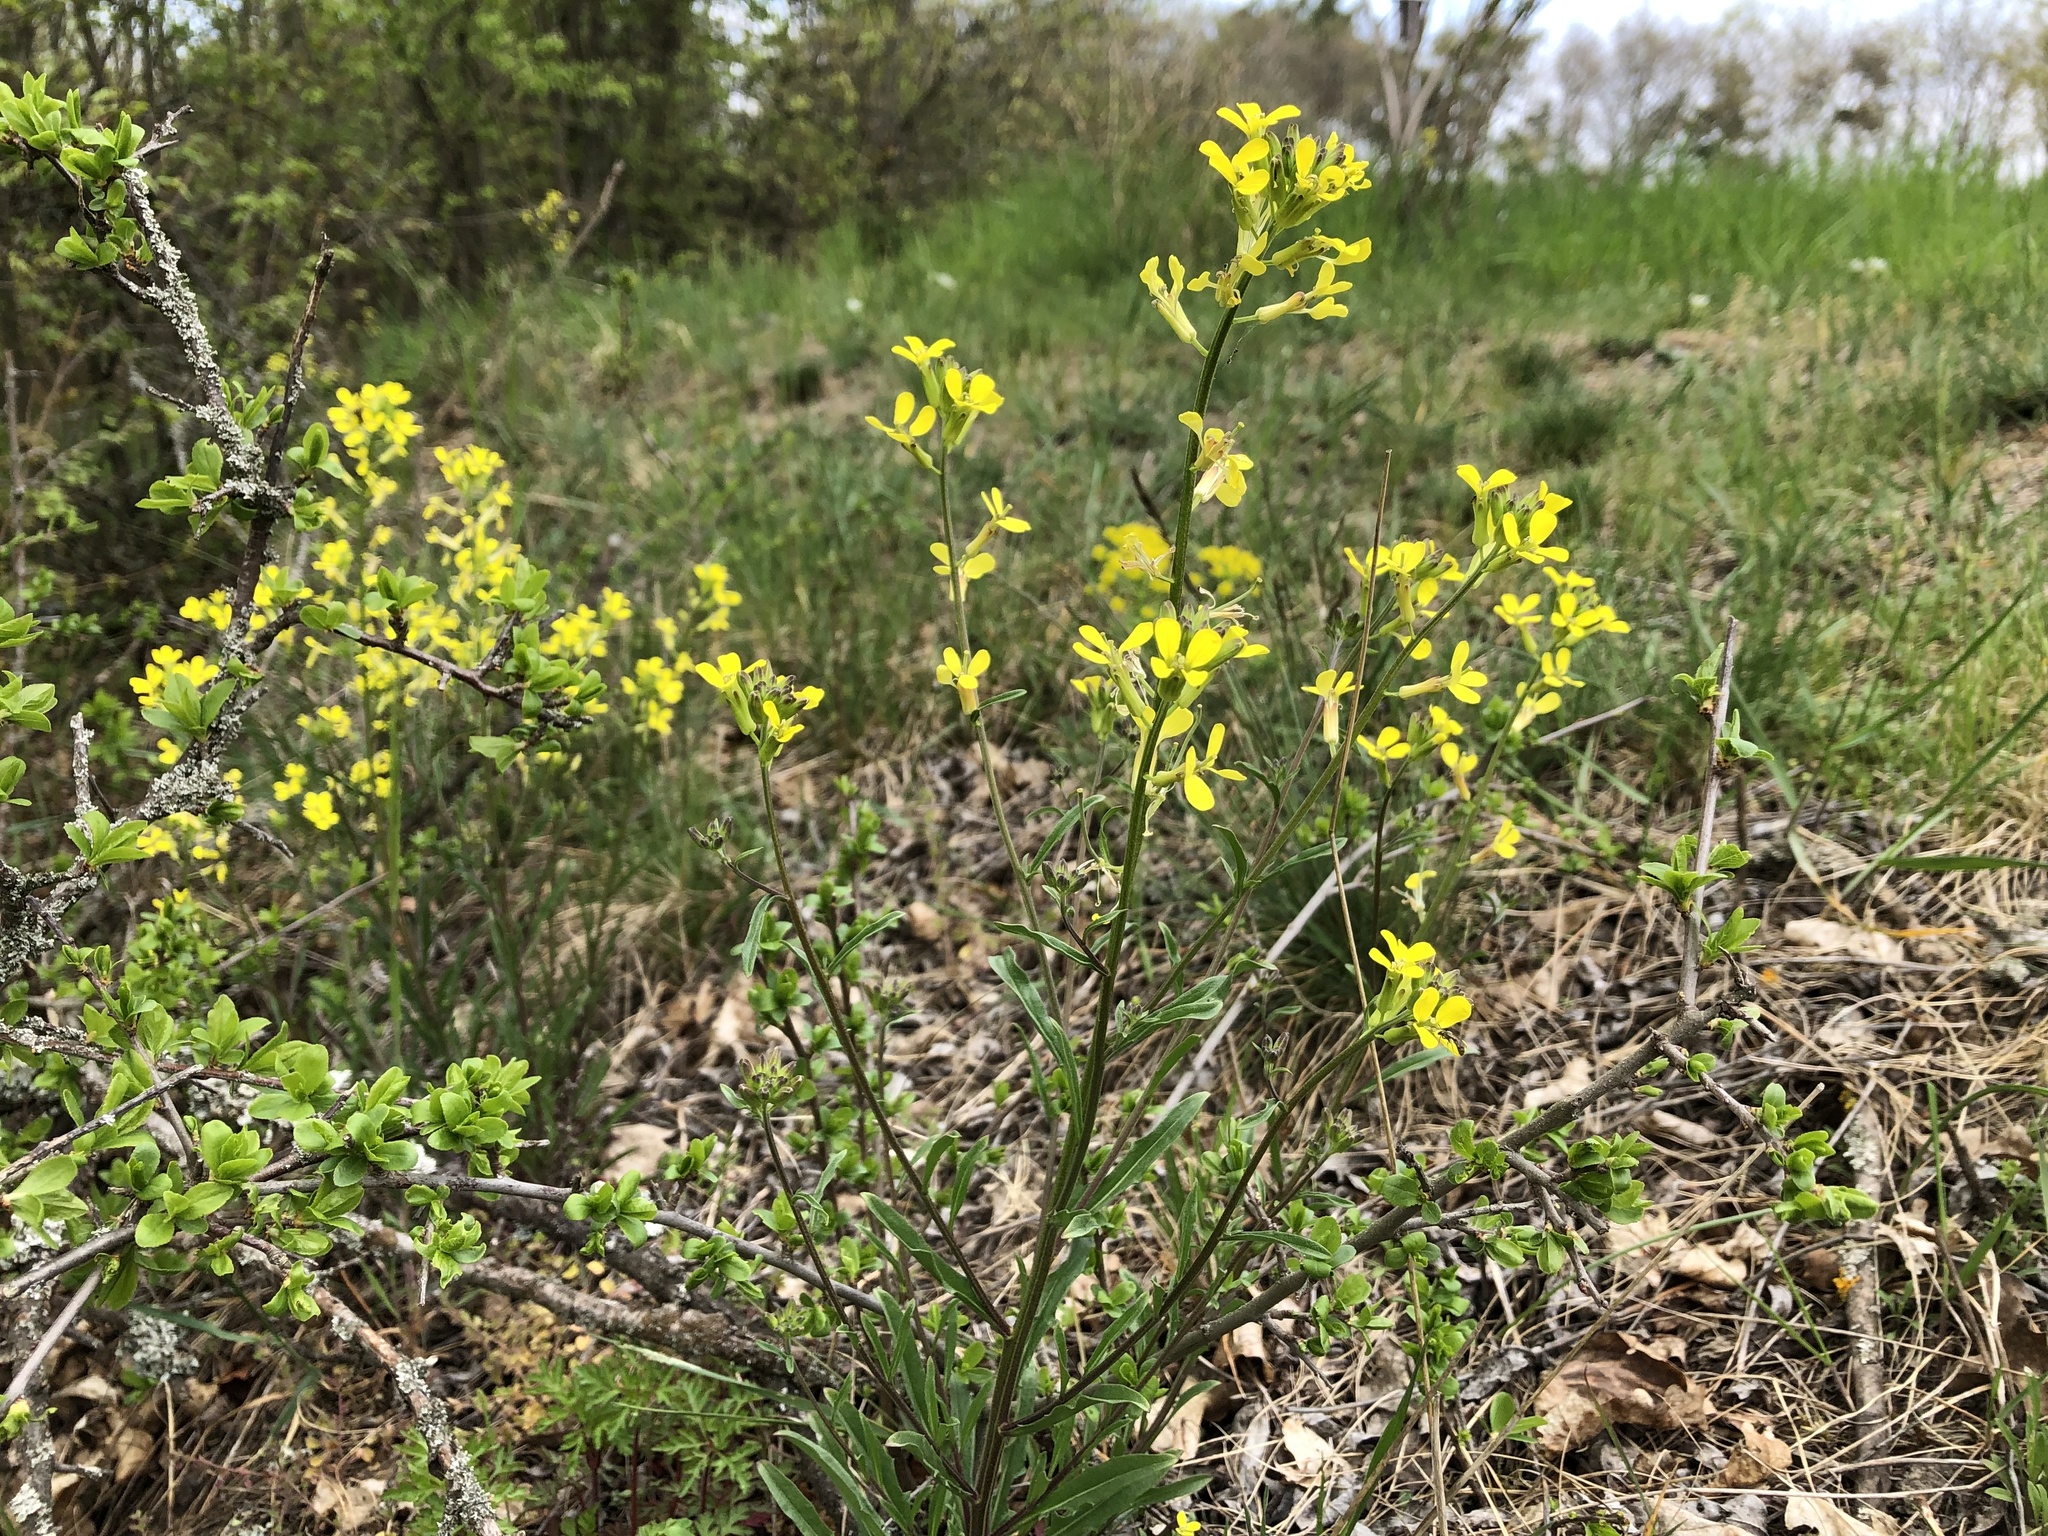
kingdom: Plantae
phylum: Tracheophyta
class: Magnoliopsida
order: Brassicales
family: Brassicaceae
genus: Erysimum
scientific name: Erysimum crepidifolium
